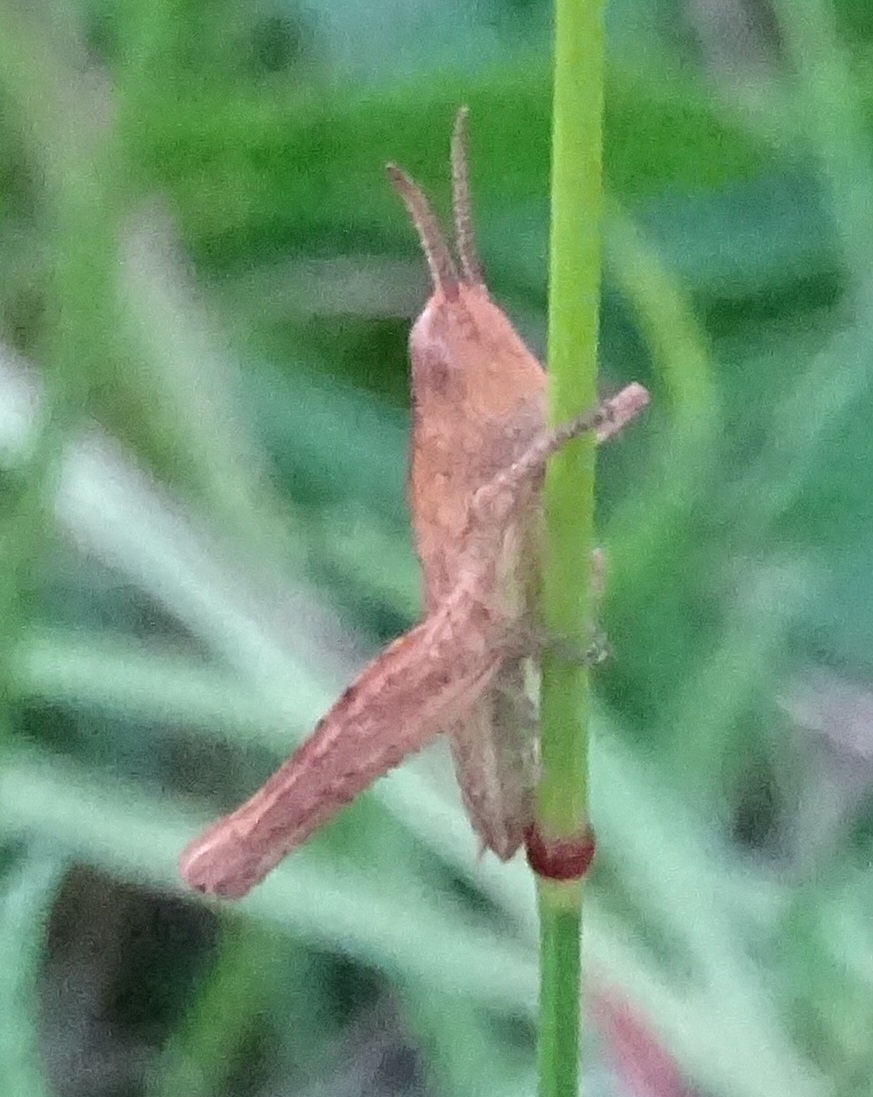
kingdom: Animalia
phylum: Arthropoda
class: Insecta
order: Orthoptera
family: Acrididae
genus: Chorthippus
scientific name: Chorthippus brunneus
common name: Field grasshopper
